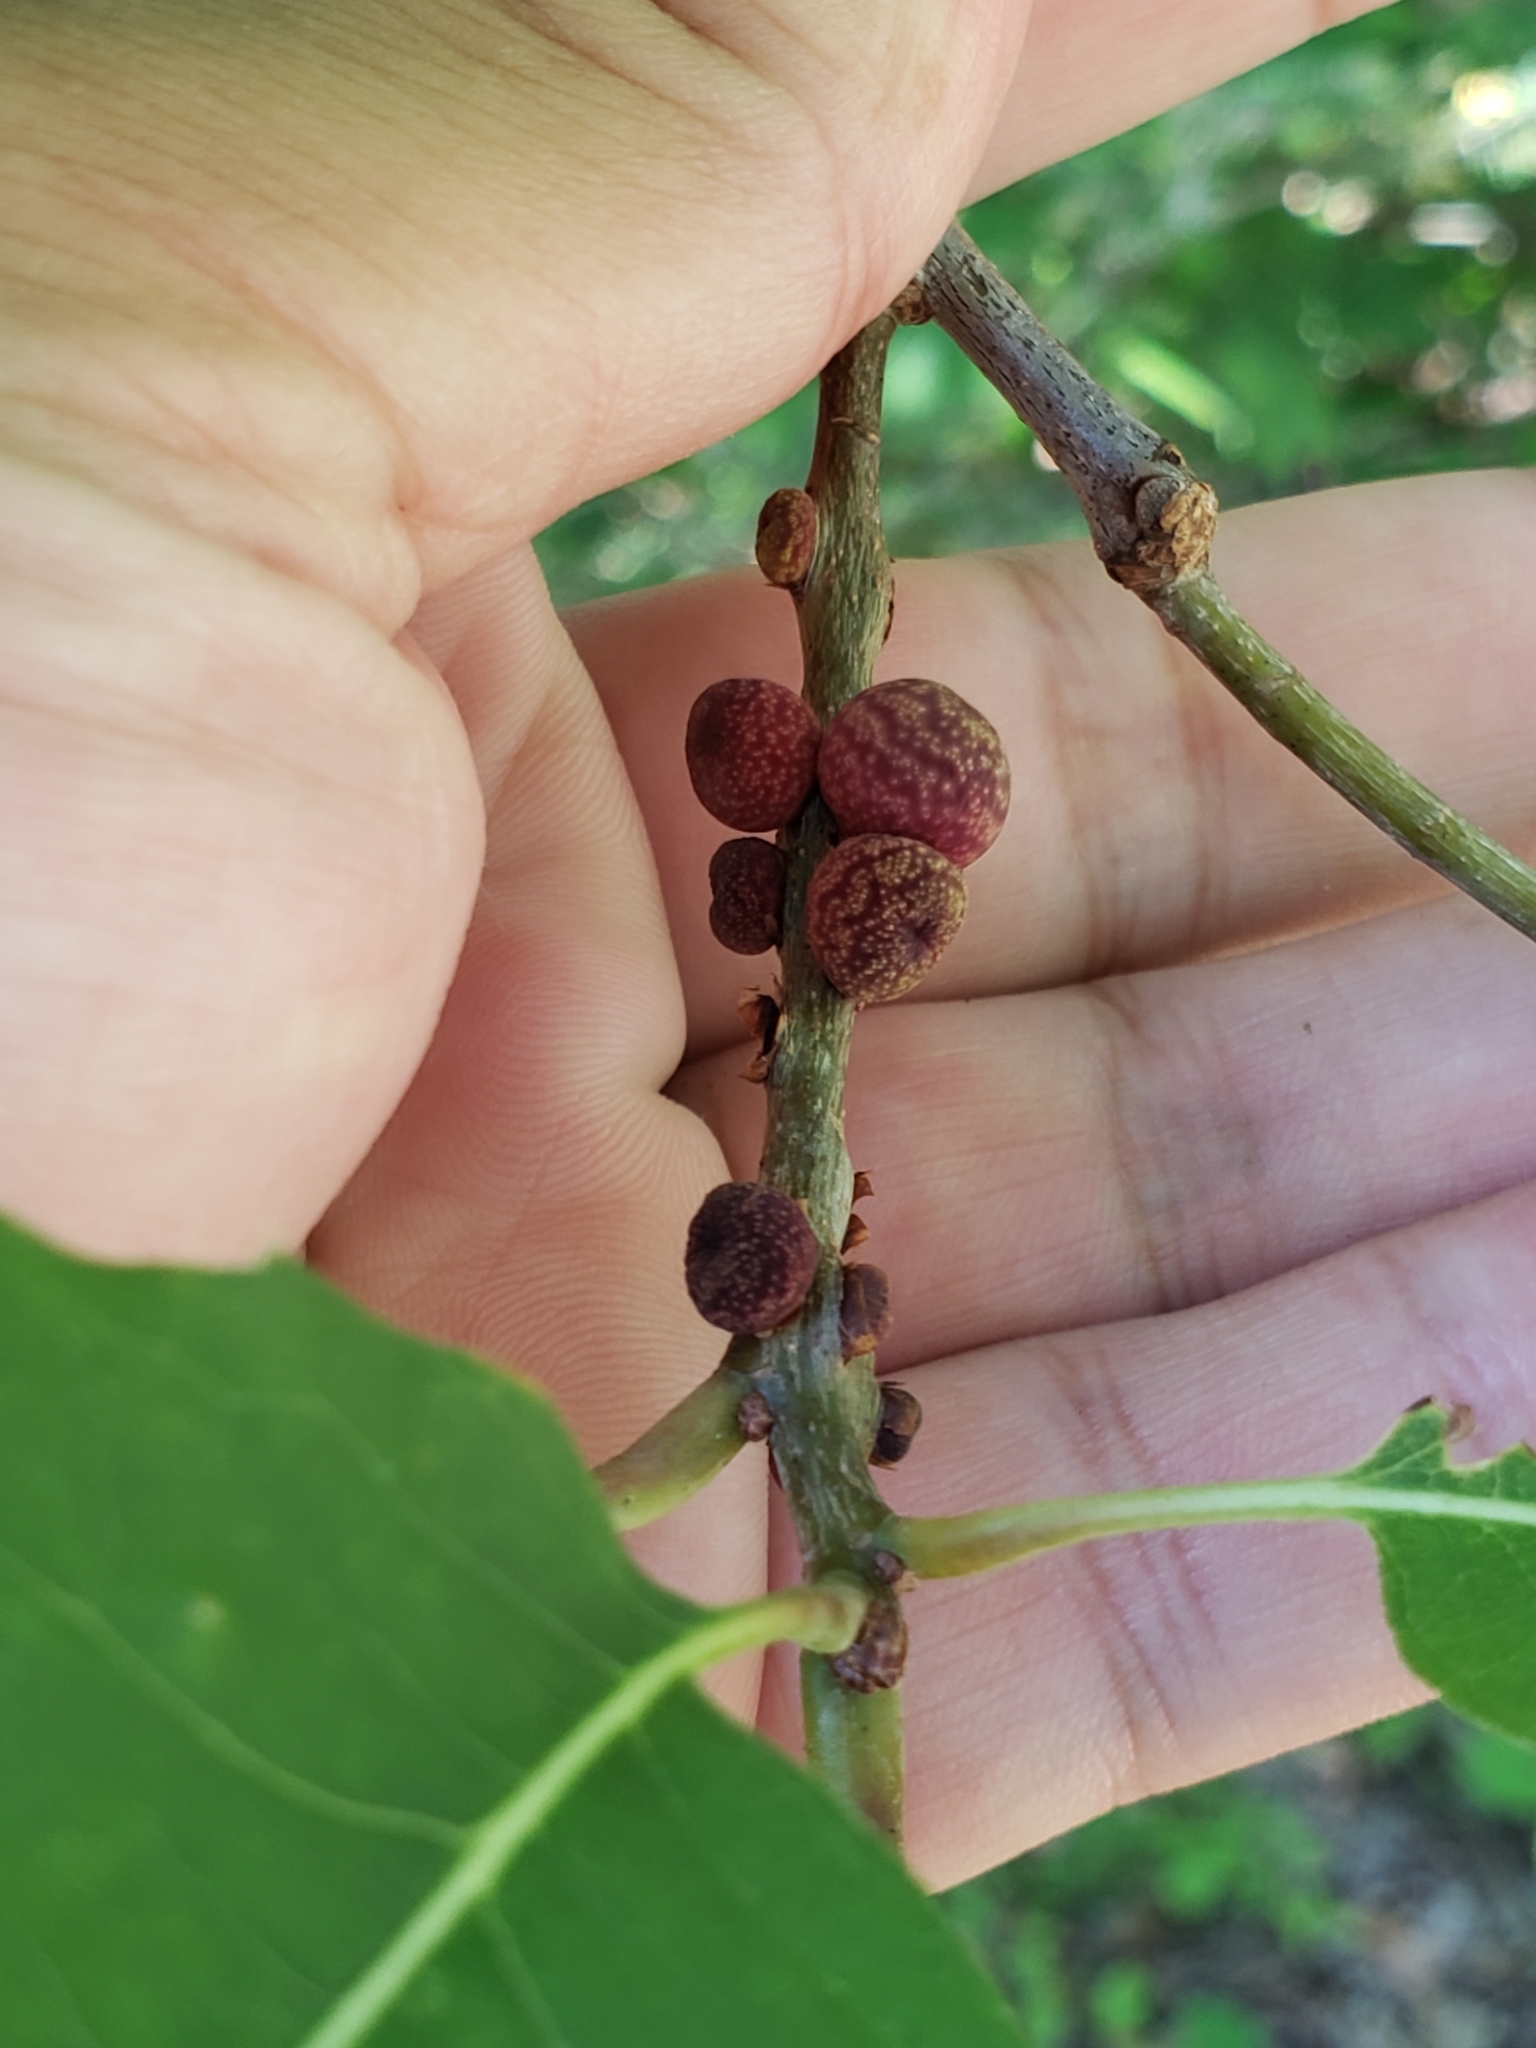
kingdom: Animalia
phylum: Arthropoda
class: Insecta
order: Hymenoptera
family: Cynipidae
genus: Kokkocynips
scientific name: Kokkocynips imbricariae
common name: Banded bullet gall wasp
